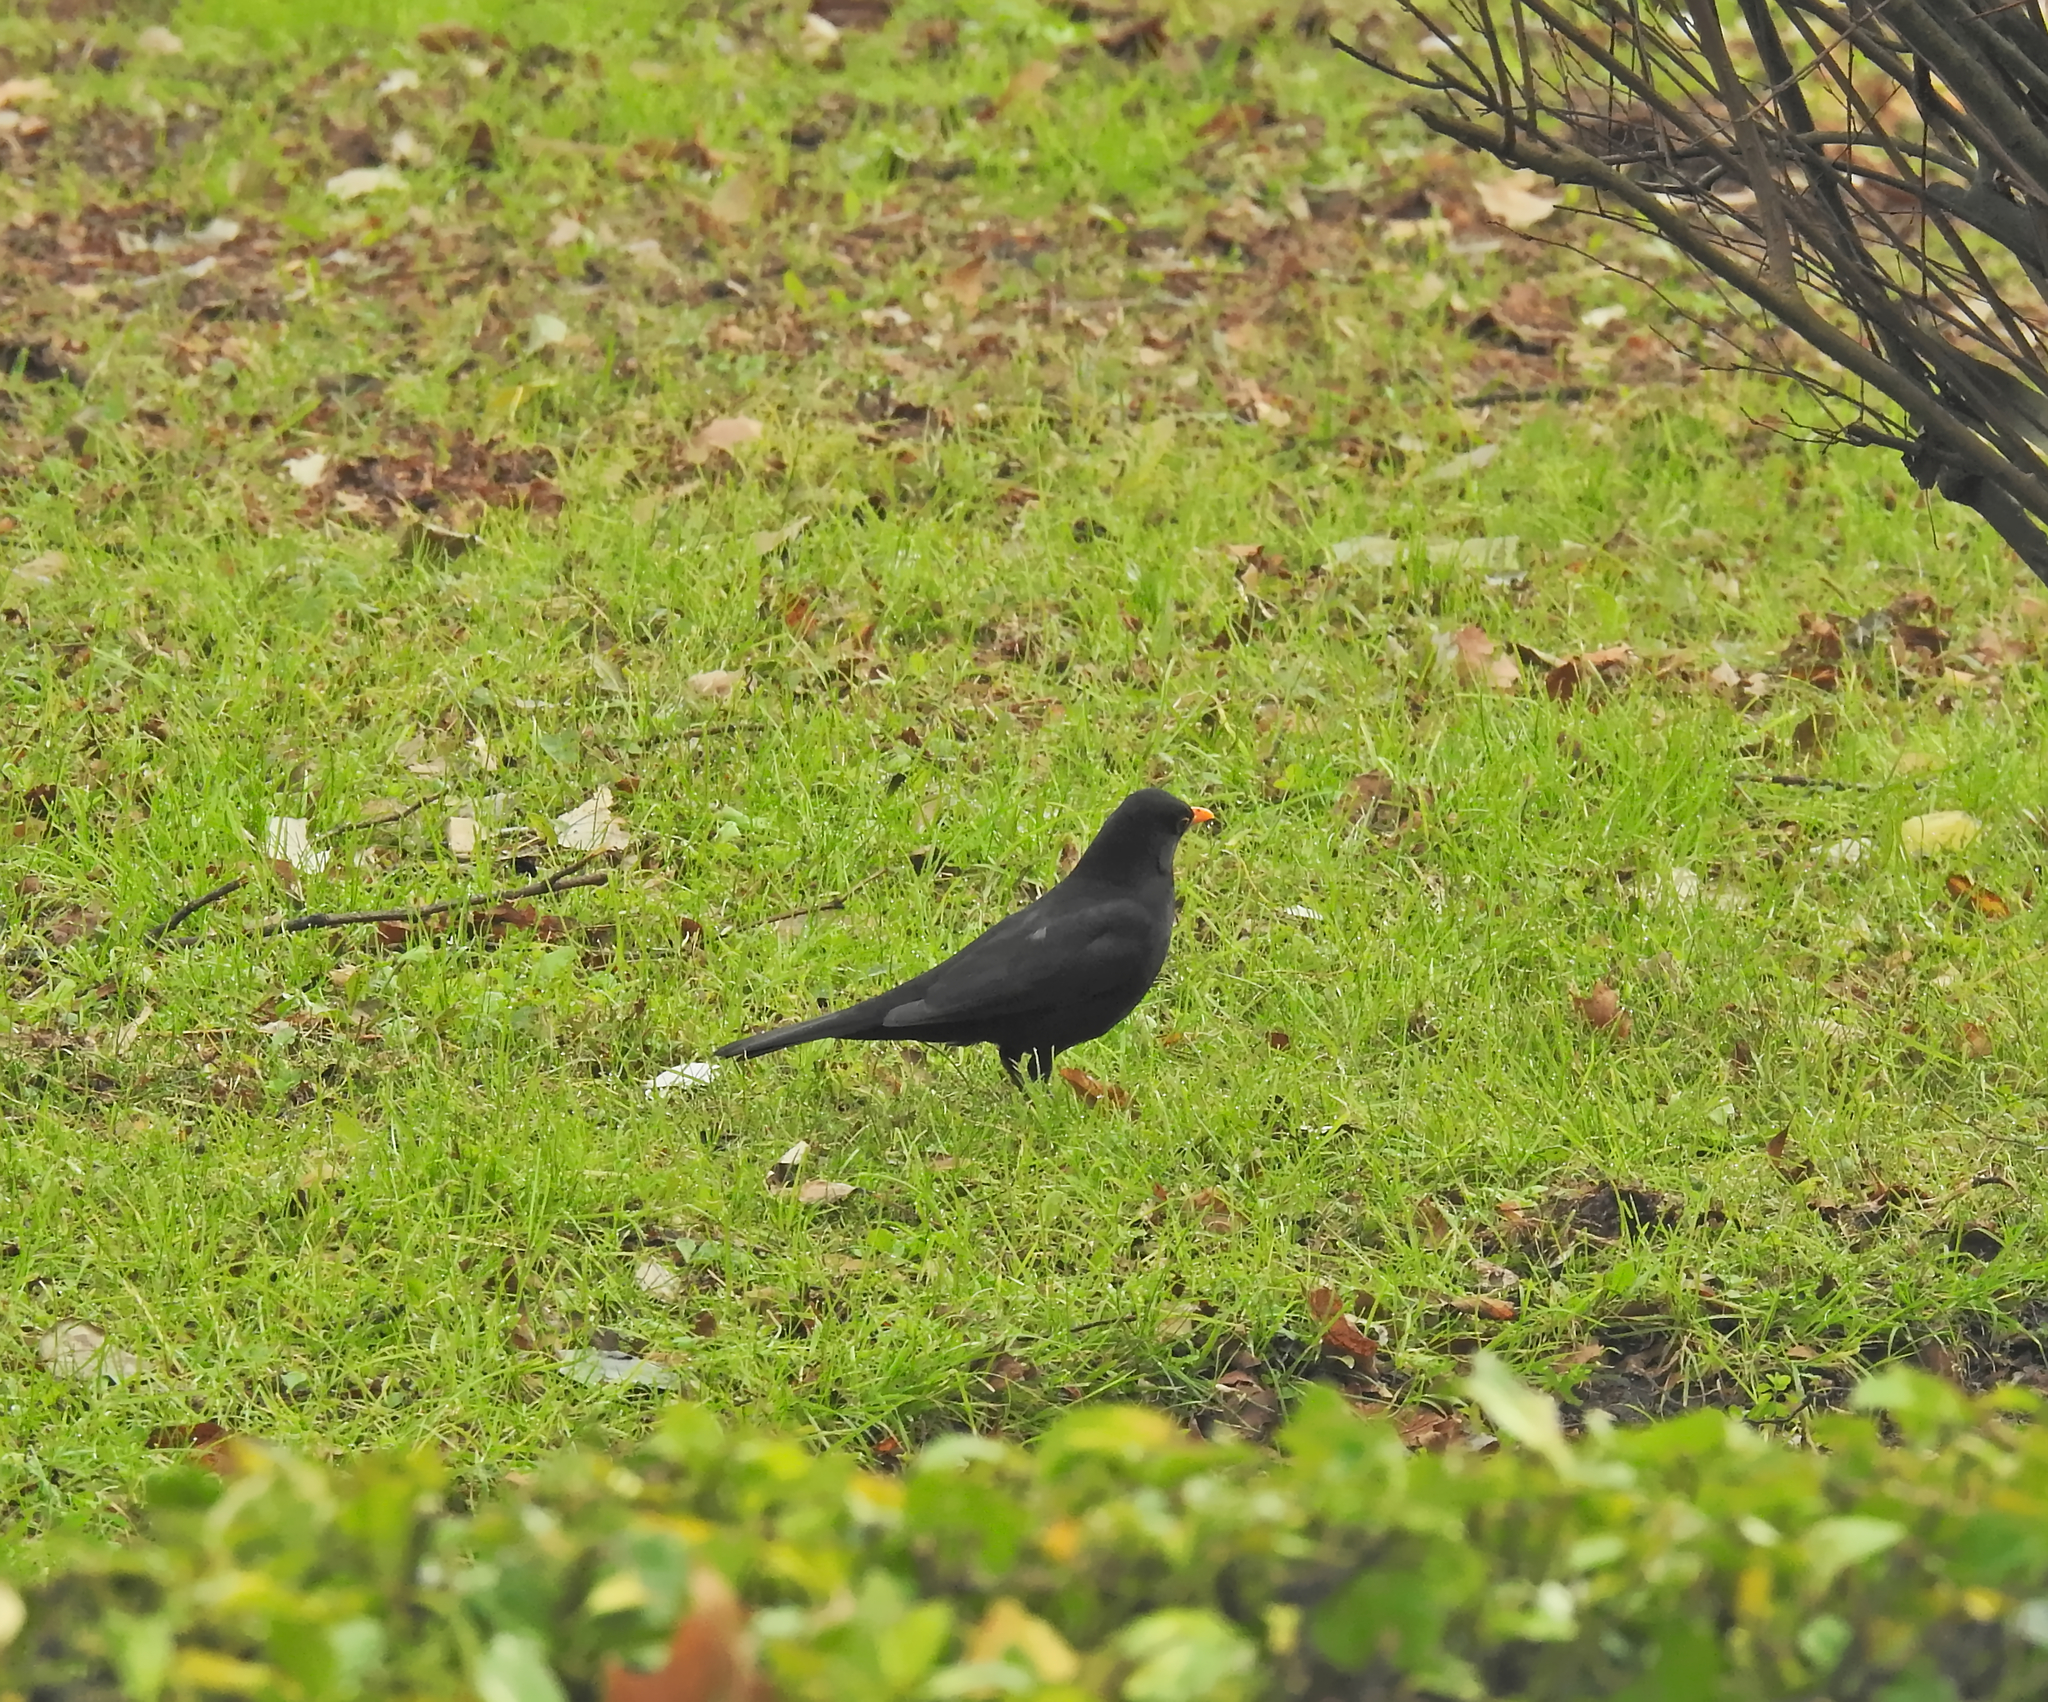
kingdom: Animalia
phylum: Chordata
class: Aves
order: Passeriformes
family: Turdidae
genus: Turdus
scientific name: Turdus merula
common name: Common blackbird
